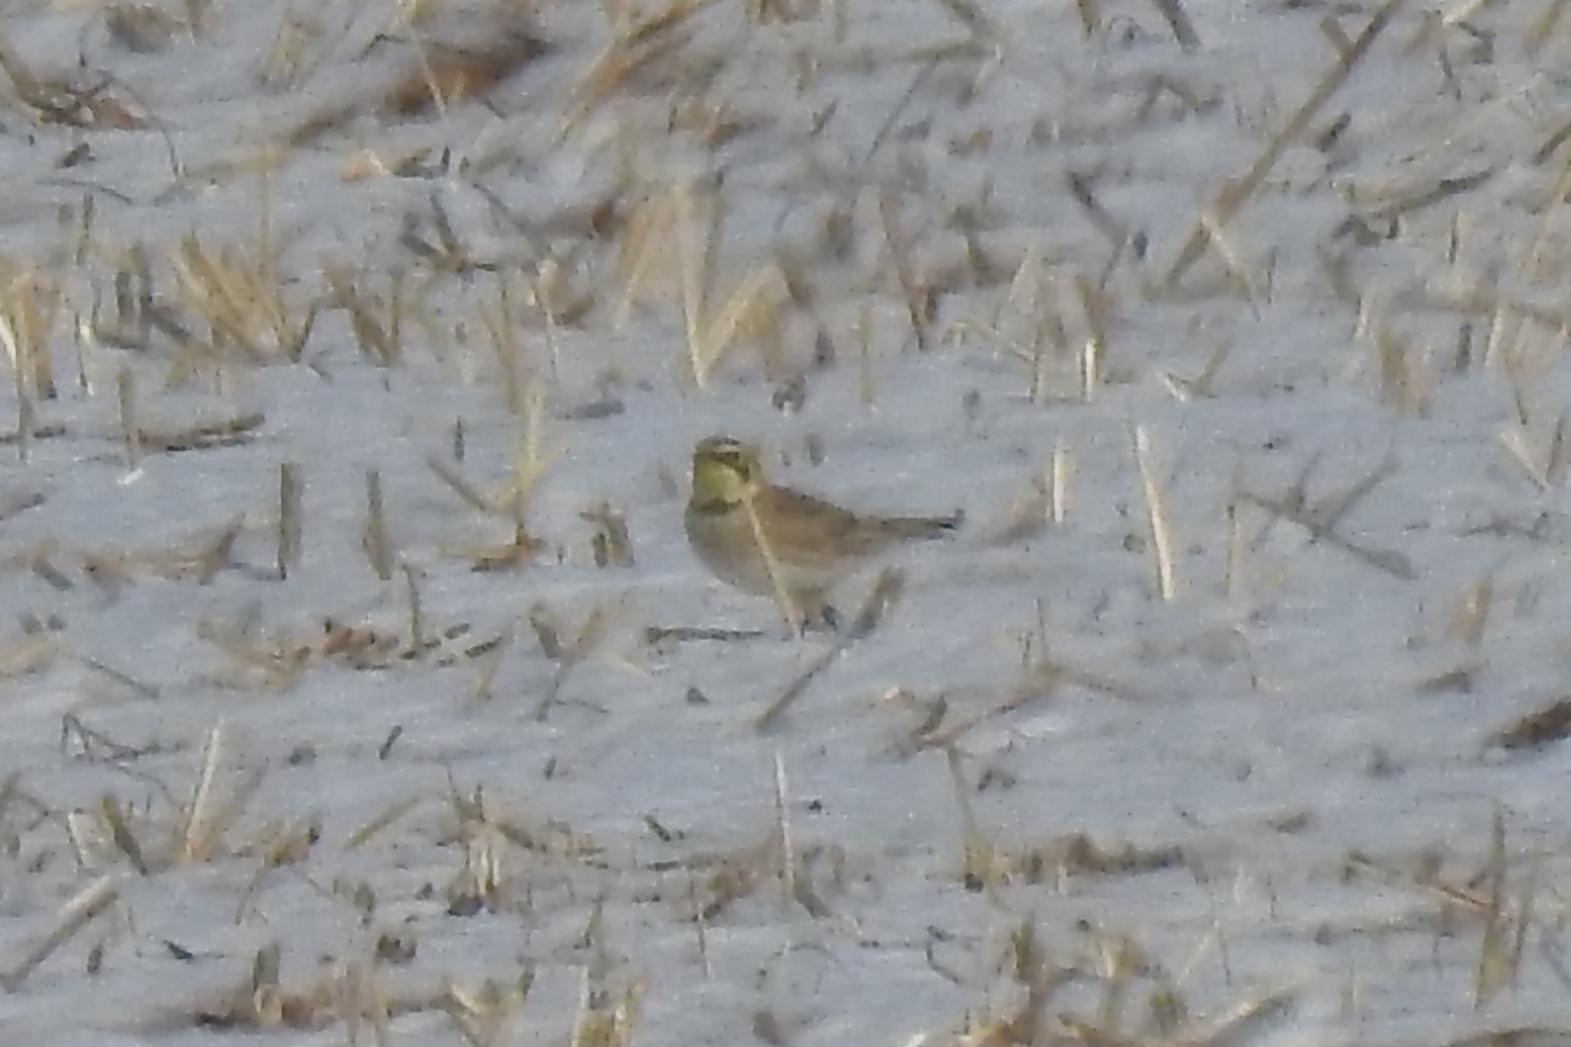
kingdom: Animalia
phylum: Chordata
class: Aves
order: Passeriformes
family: Alaudidae
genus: Eremophila
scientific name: Eremophila alpestris
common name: Horned lark
